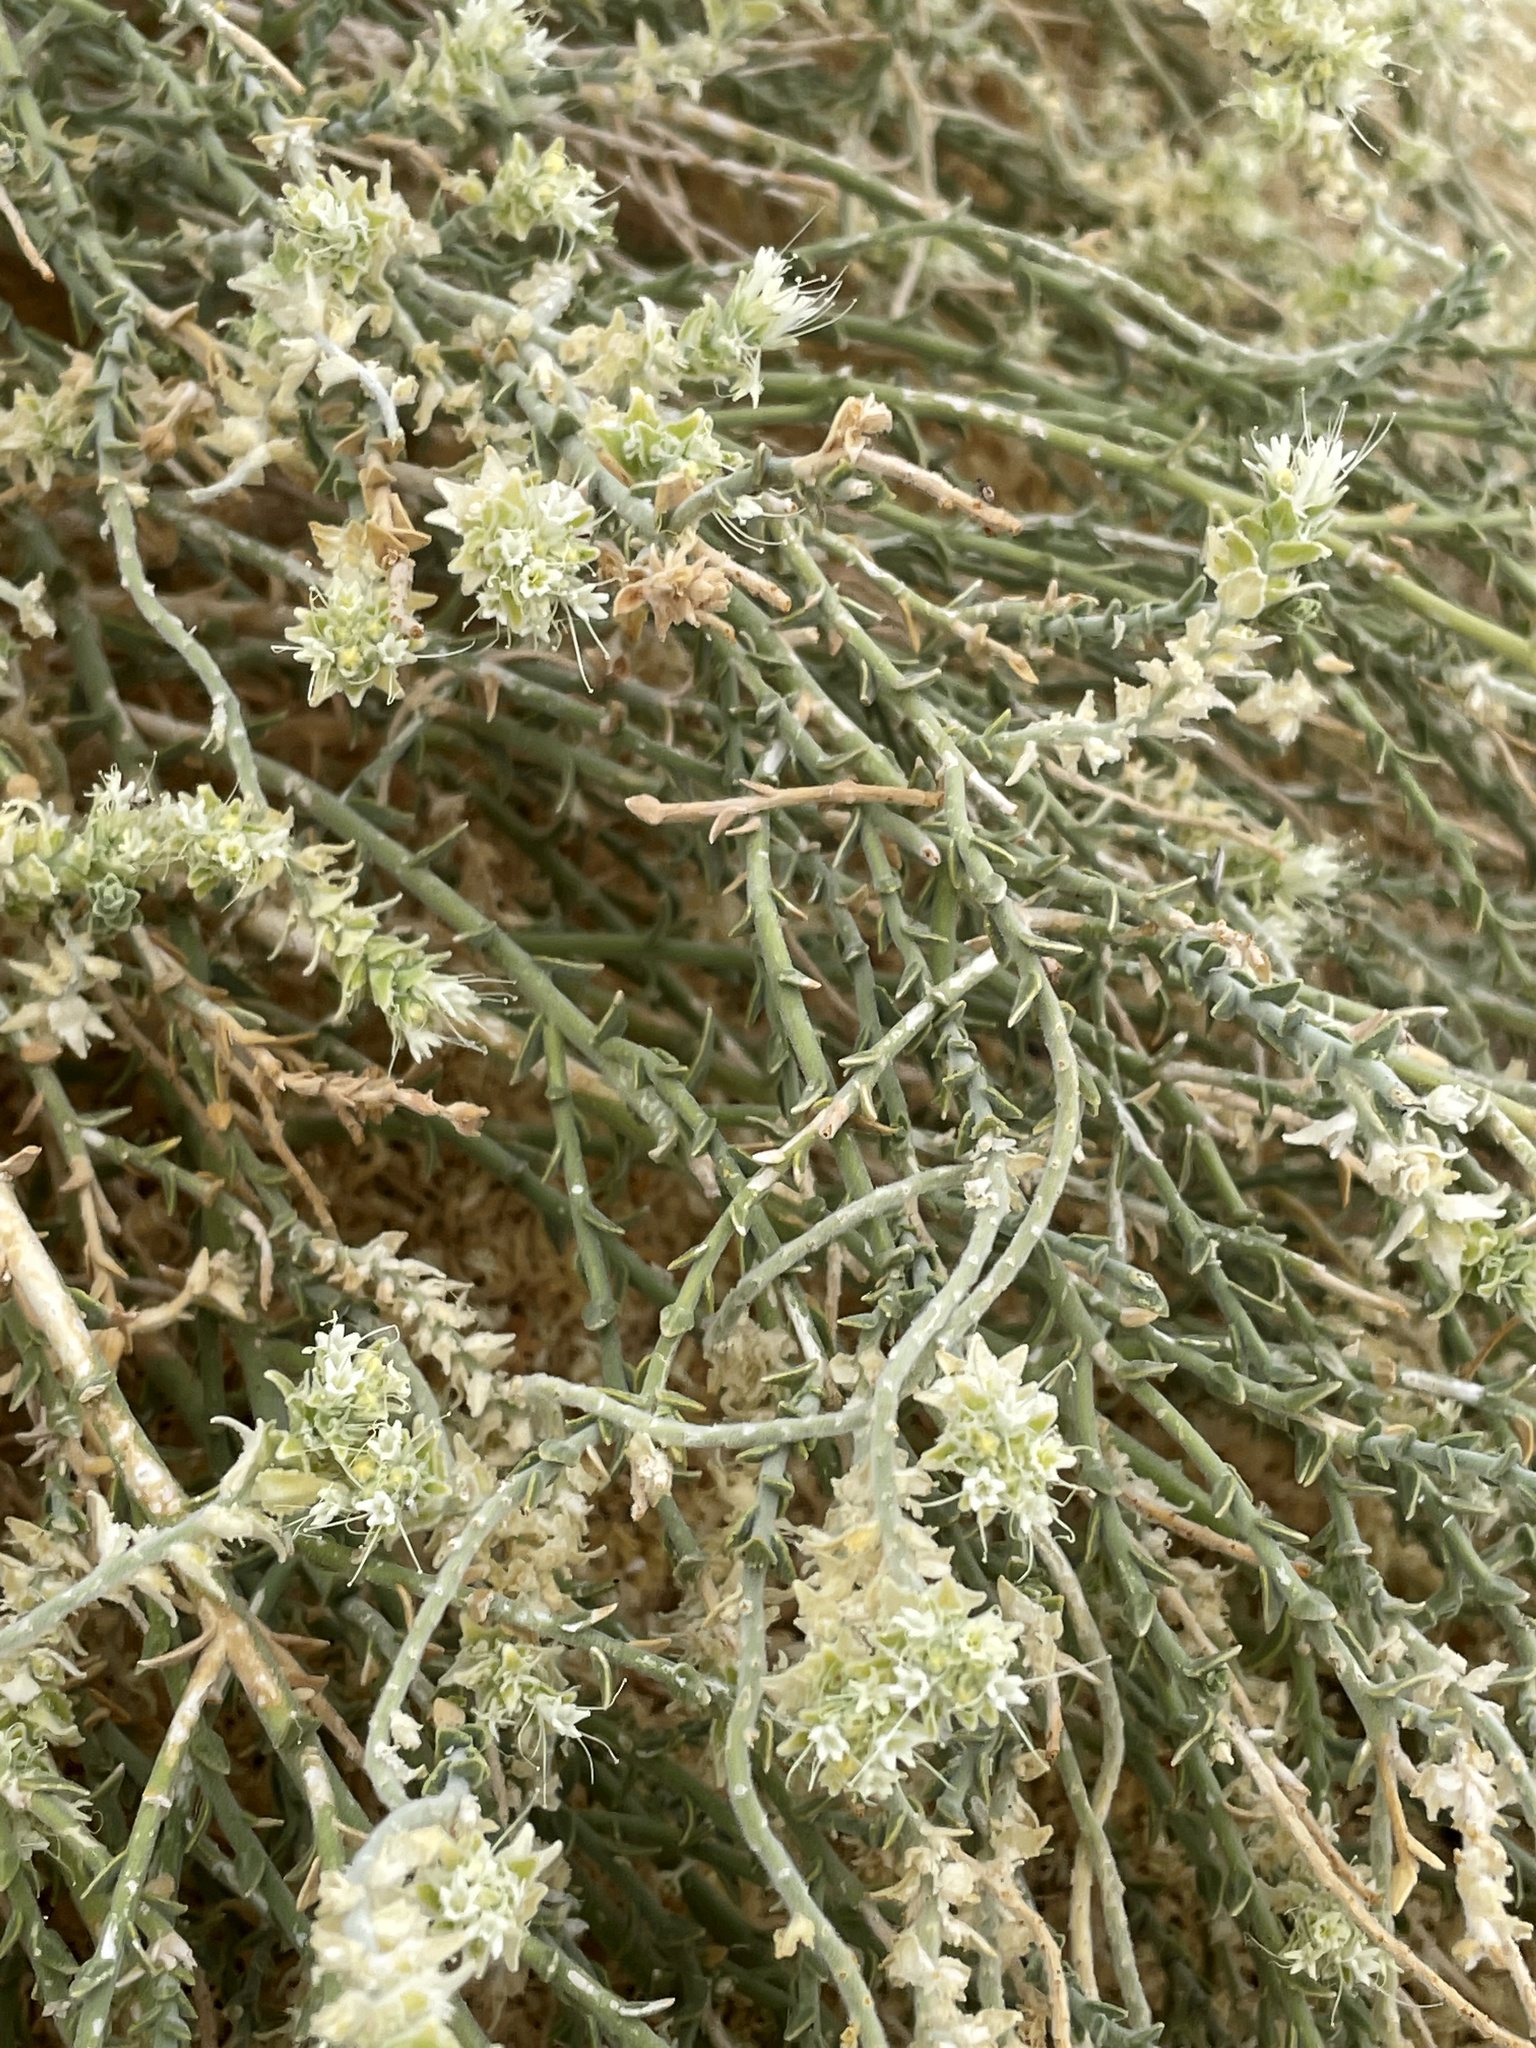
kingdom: Plantae
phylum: Tracheophyta
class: Magnoliopsida
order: Cornales
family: Loasaceae
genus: Petalonyx
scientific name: Petalonyx thurberi
